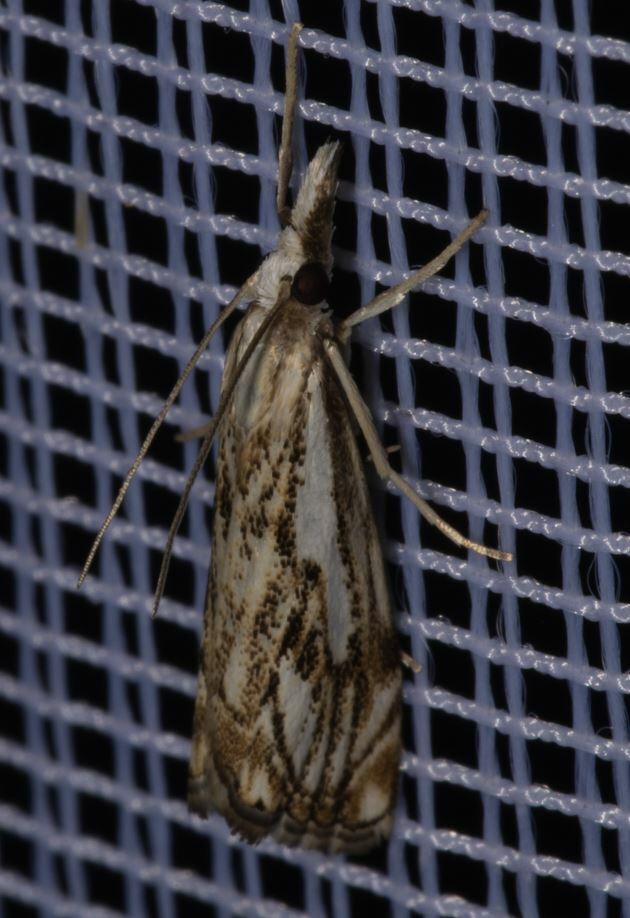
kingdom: Animalia
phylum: Arthropoda
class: Insecta
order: Lepidoptera
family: Crambidae
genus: Catoptria
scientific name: Catoptria falsella
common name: Chequered grass-veneer
